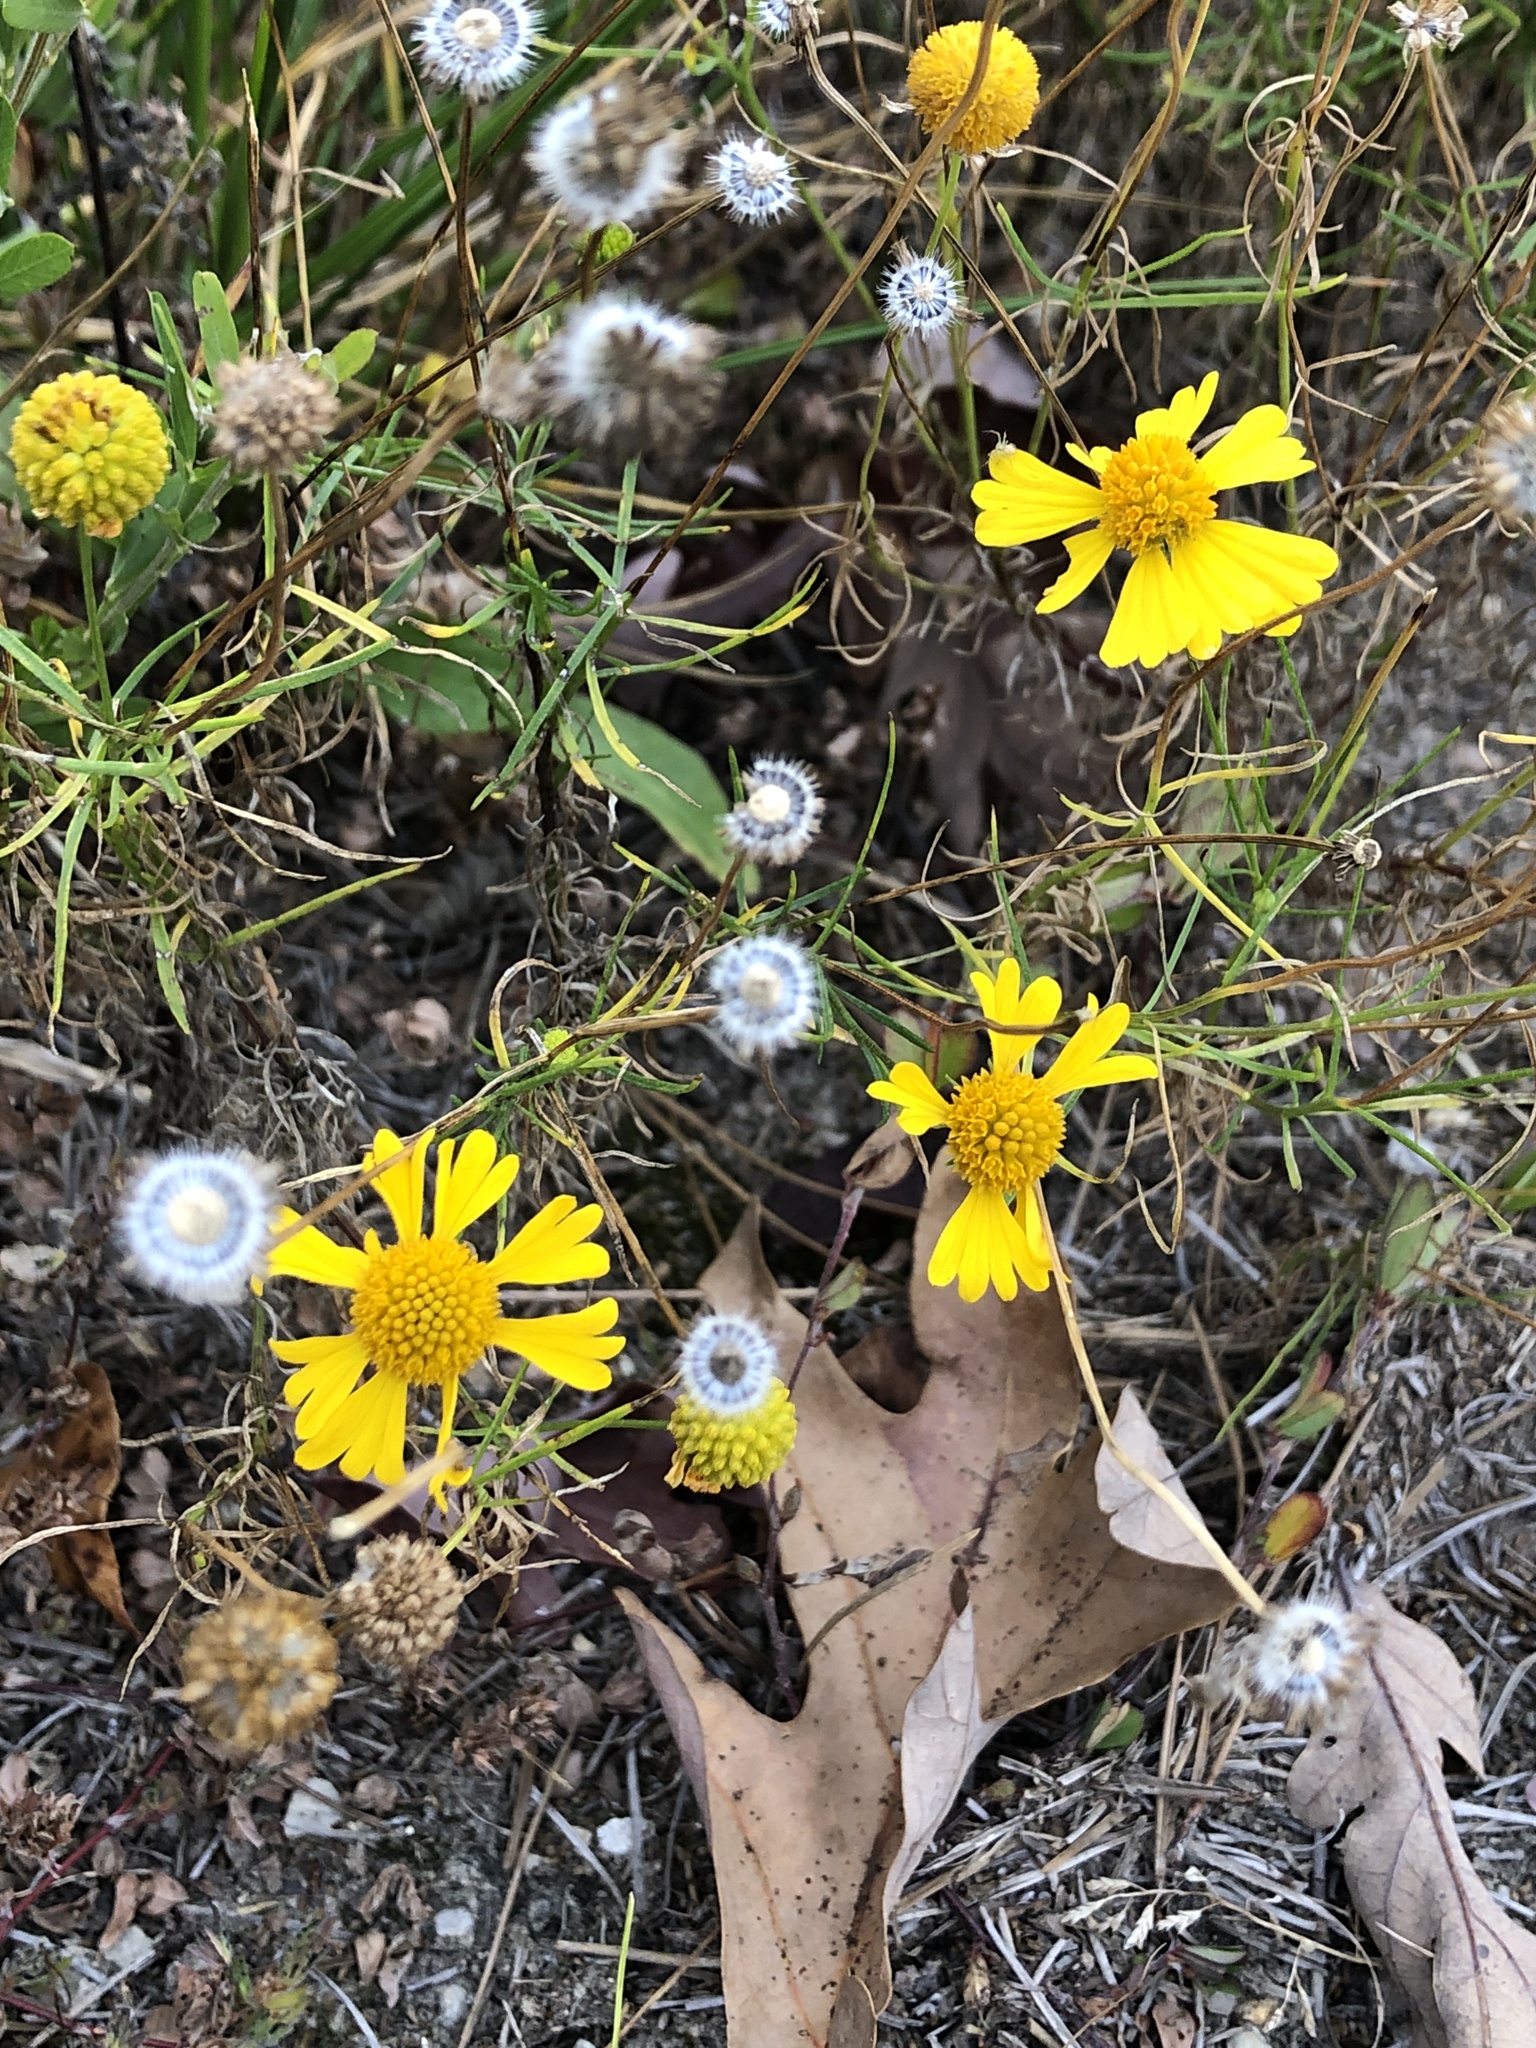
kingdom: Plantae
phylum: Tracheophyta
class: Magnoliopsida
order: Asterales
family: Asteraceae
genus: Helenium
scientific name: Helenium amarum
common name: Bitter sneezeweed
